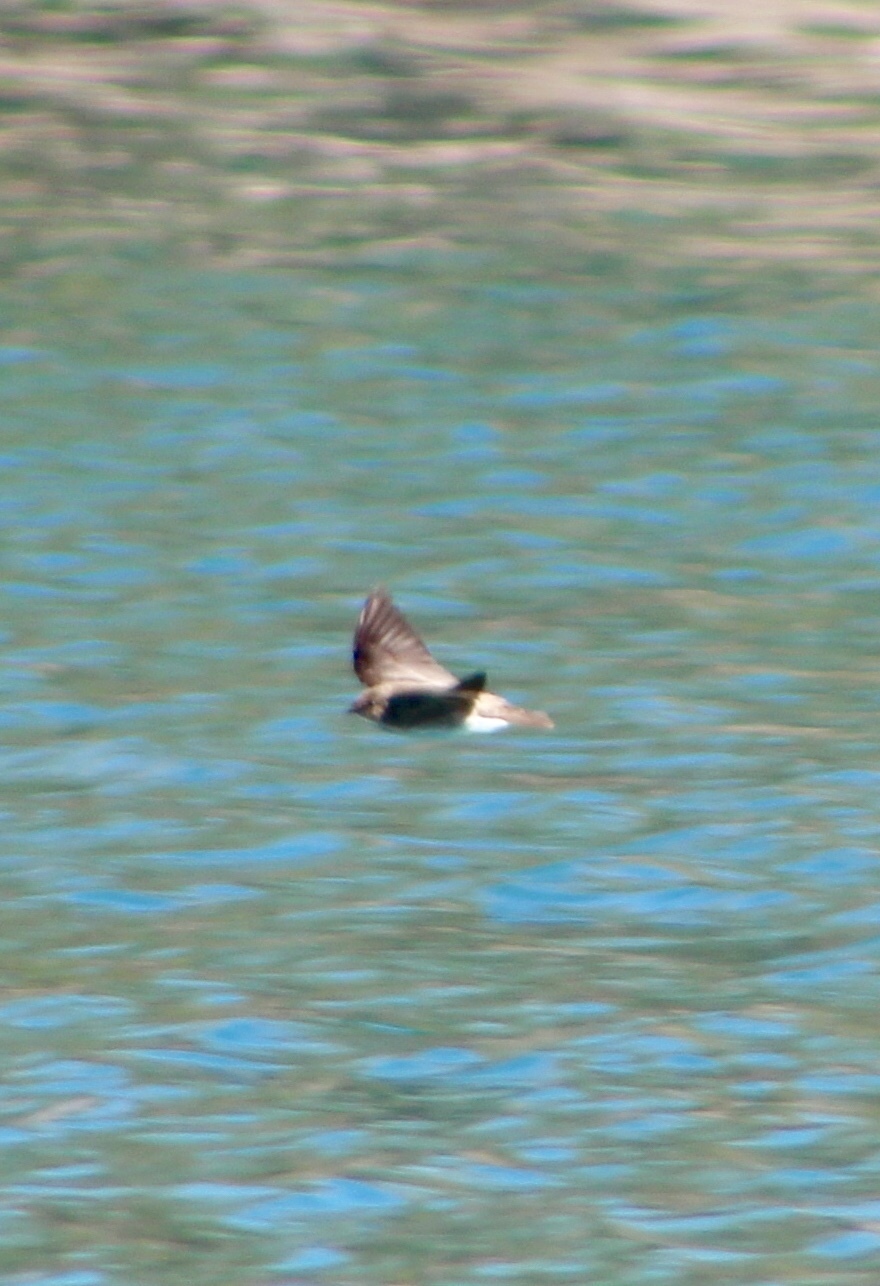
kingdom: Animalia
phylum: Chordata
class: Aves
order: Passeriformes
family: Hirundinidae
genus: Stelgidopteryx
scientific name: Stelgidopteryx serripennis
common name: Northern rough-winged swallow
